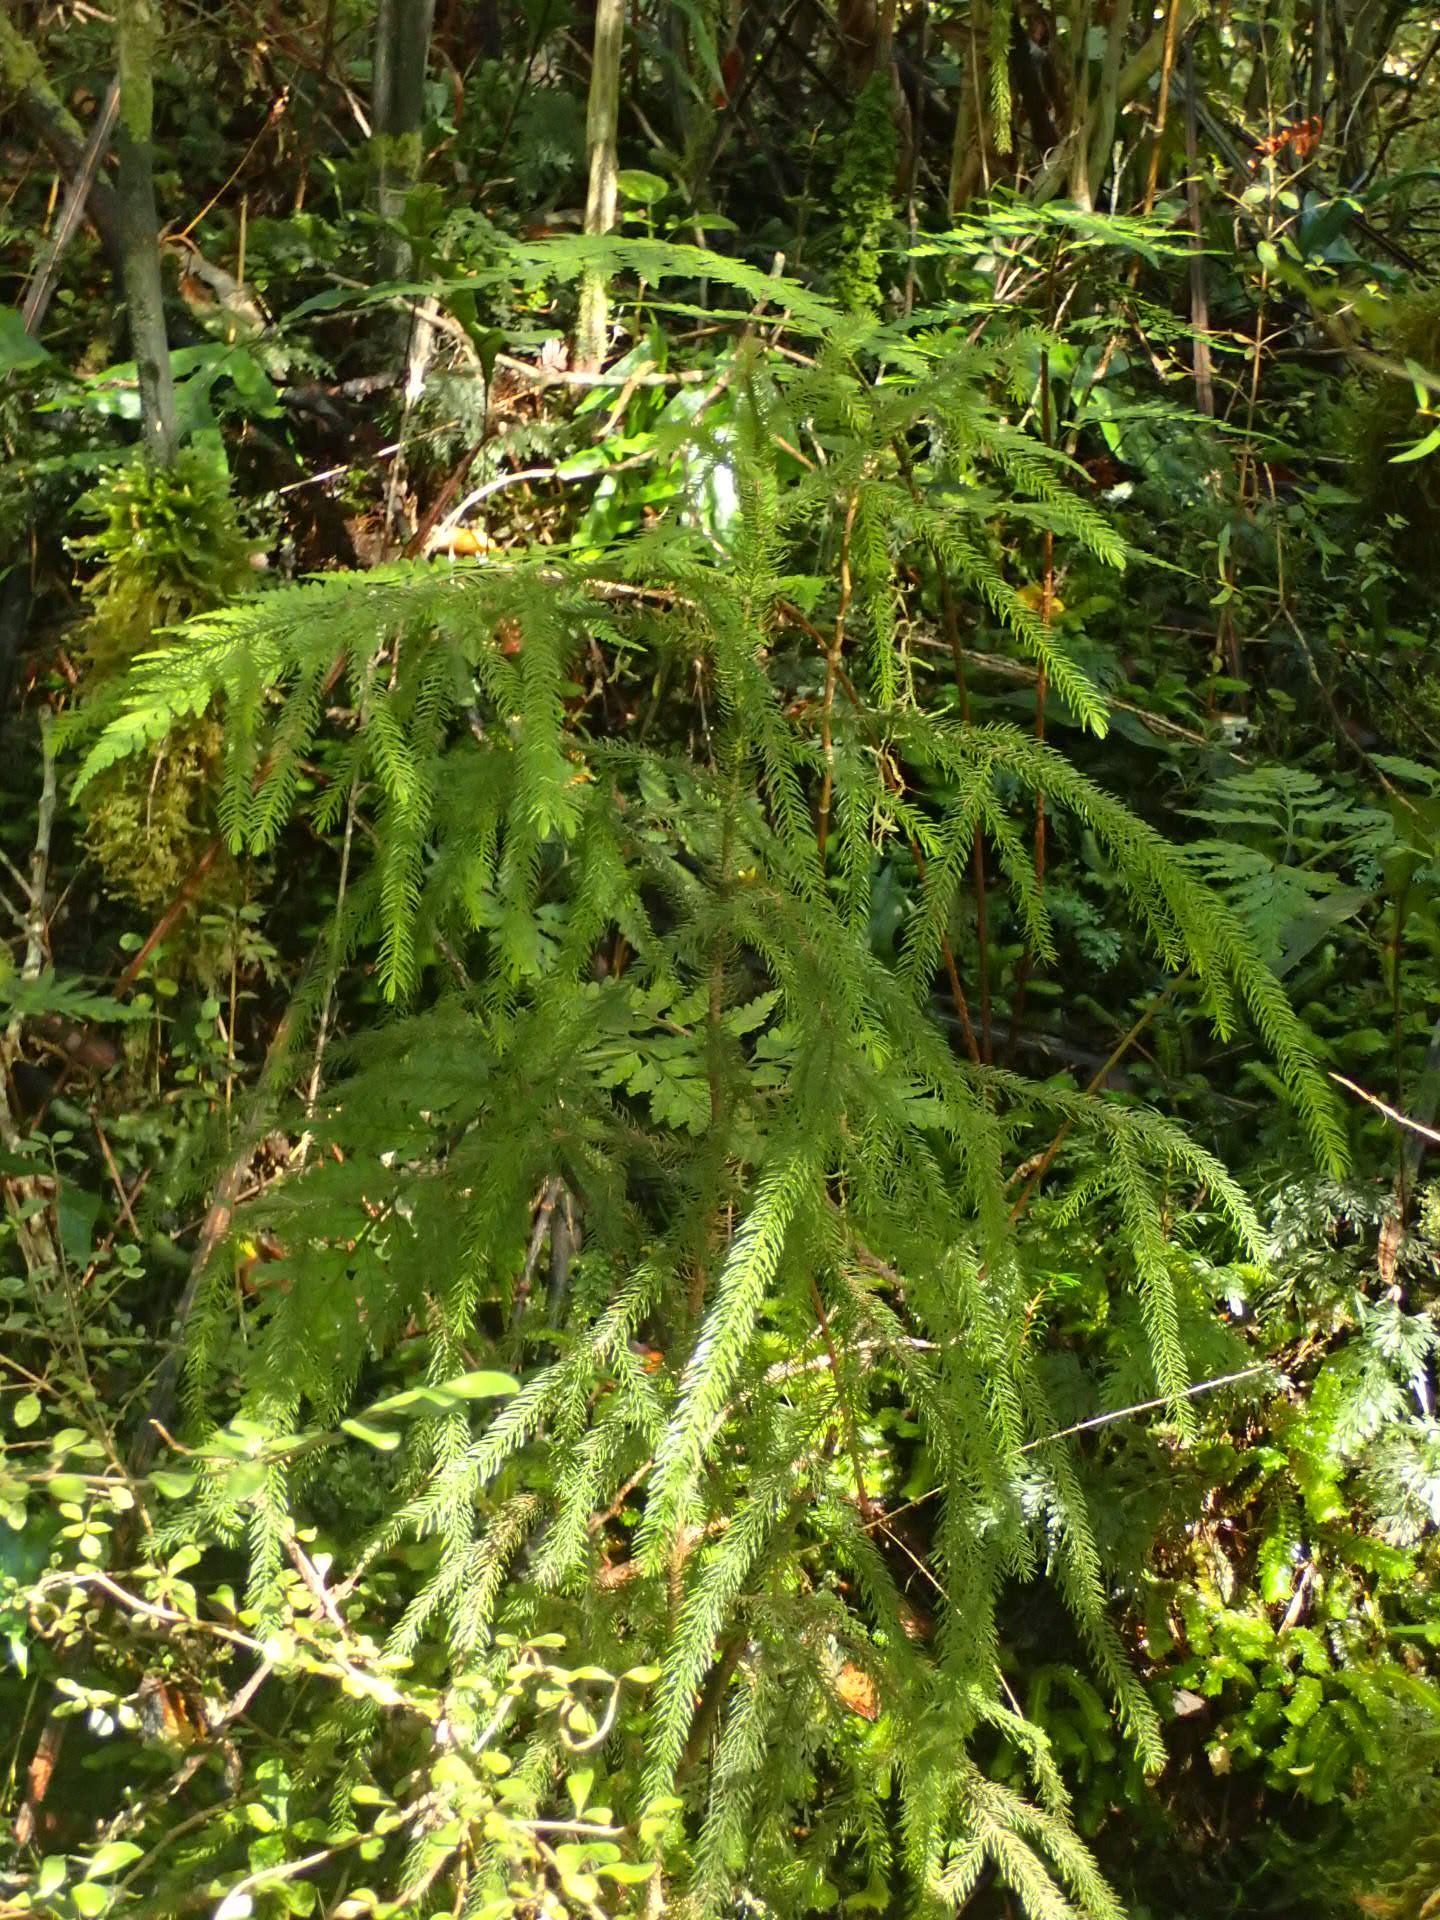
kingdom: Plantae
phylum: Tracheophyta
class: Pinopsida
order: Pinales
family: Podocarpaceae
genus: Dacrydium
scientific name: Dacrydium cupressinum
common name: Red pine
